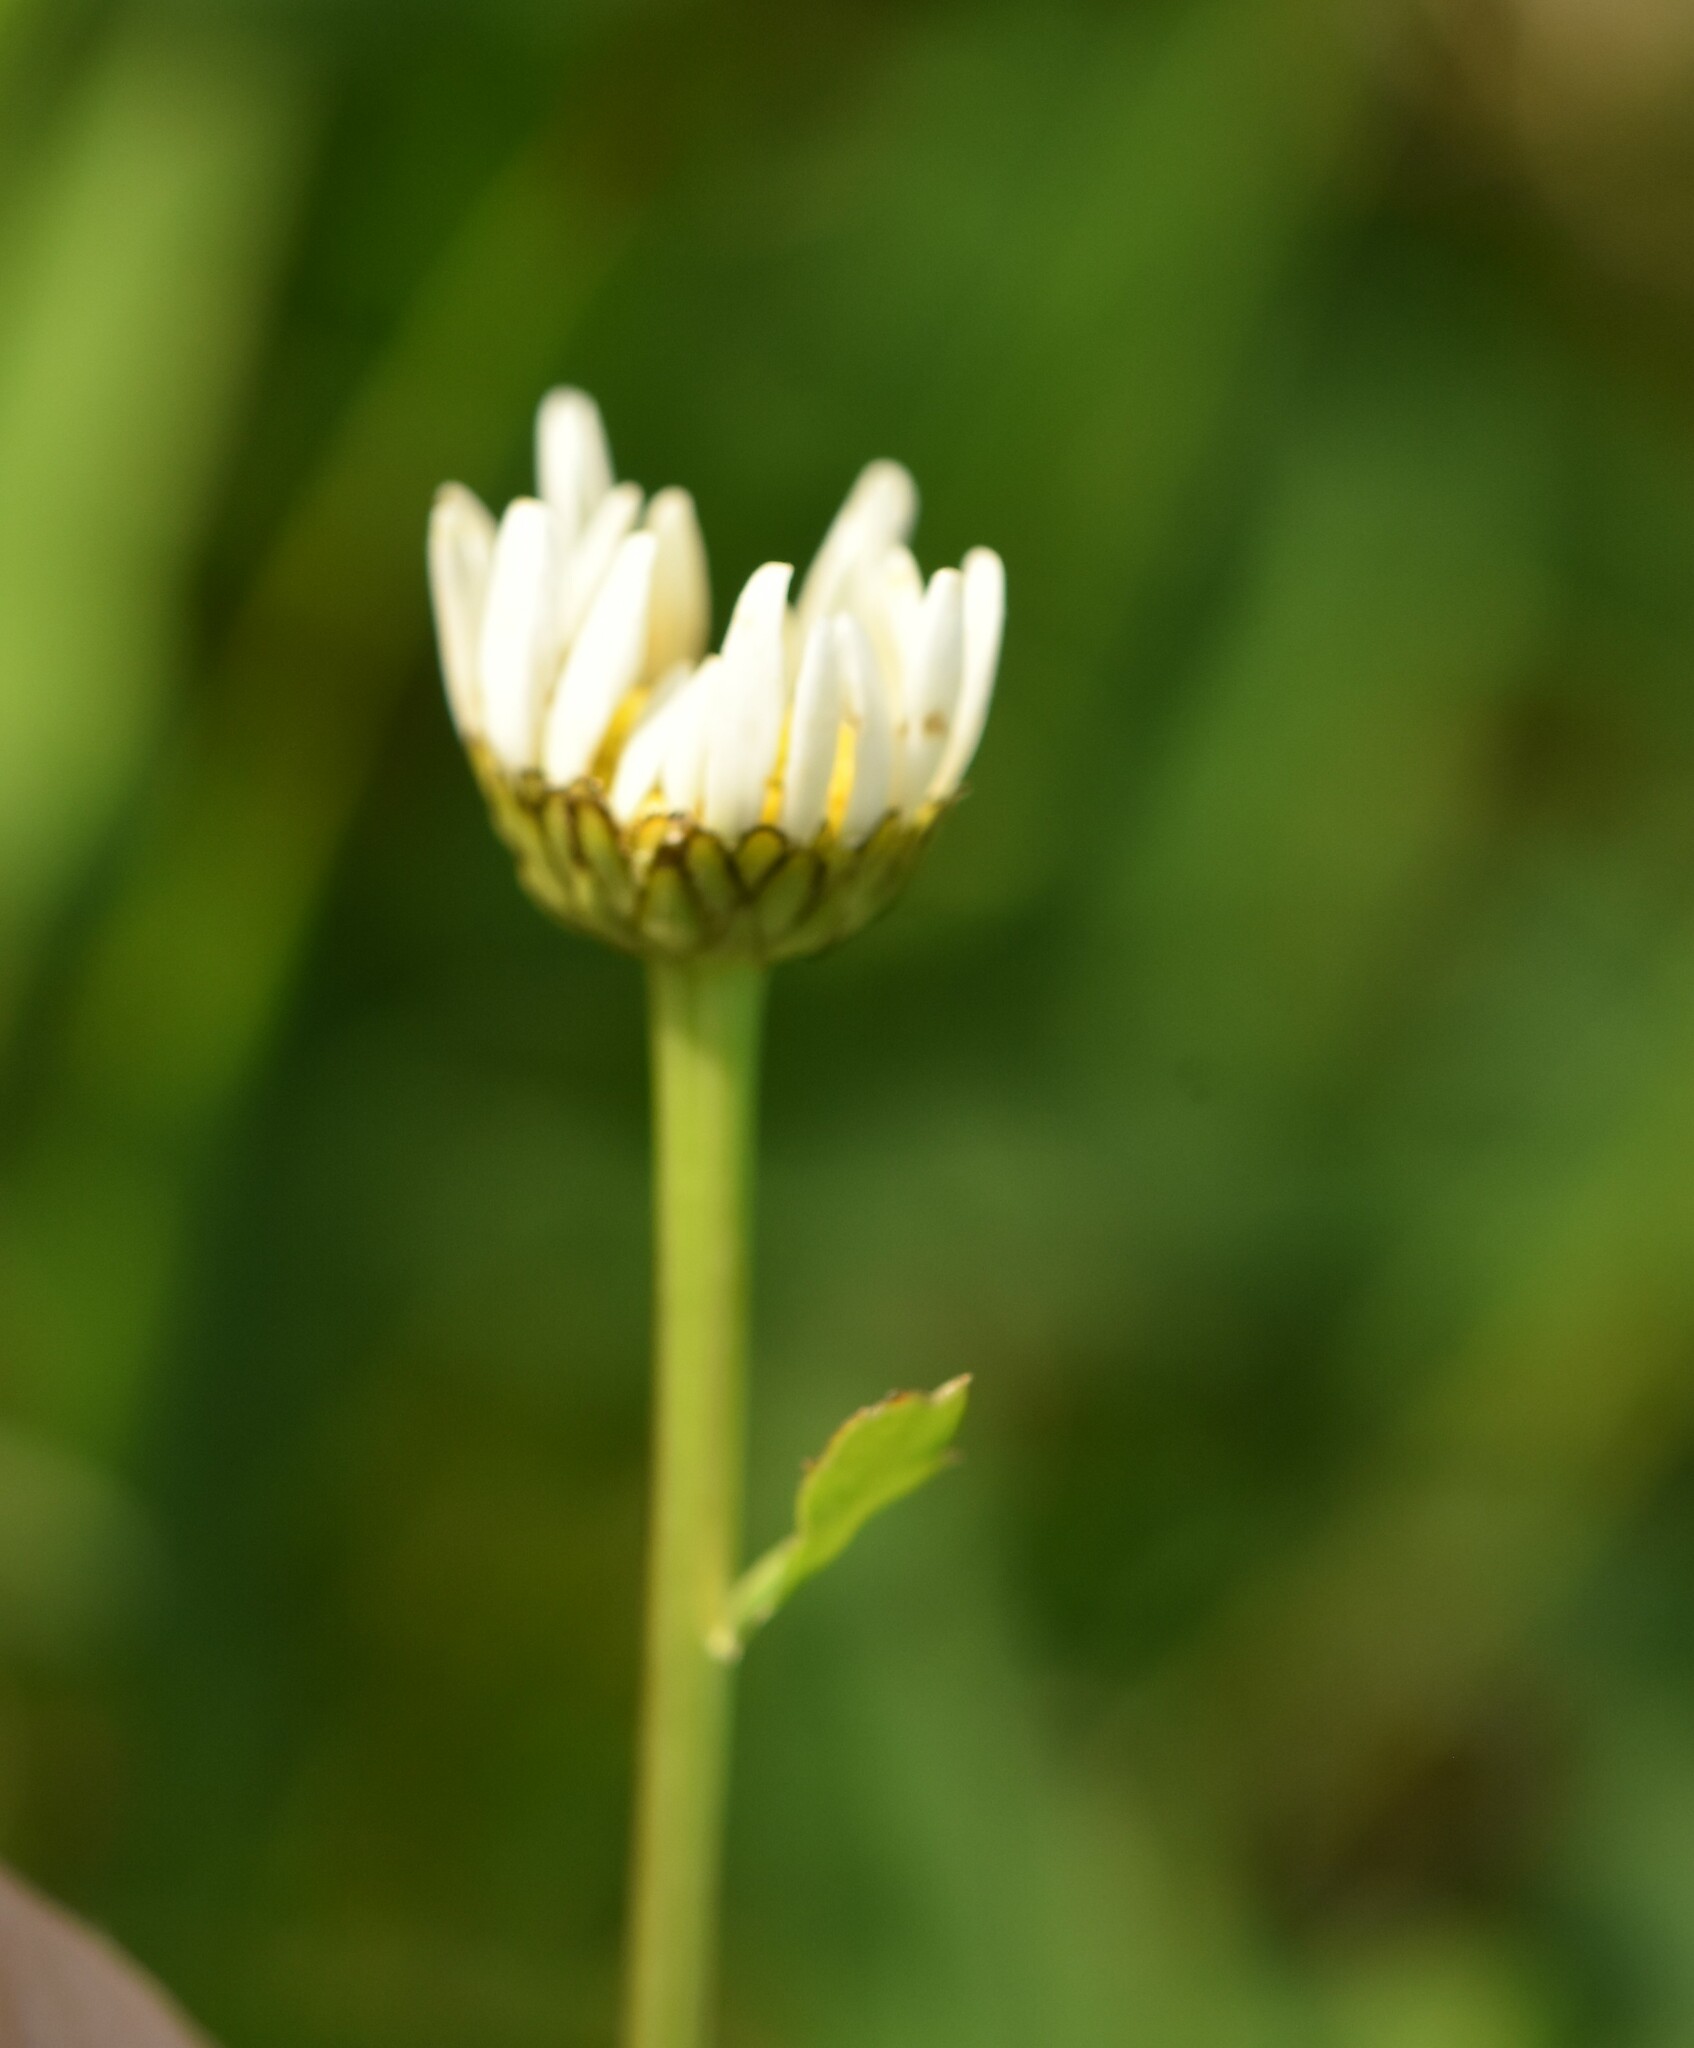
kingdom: Plantae
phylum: Tracheophyta
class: Magnoliopsida
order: Asterales
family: Asteraceae
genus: Leucanthemum
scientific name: Leucanthemum vulgare
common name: Oxeye daisy
